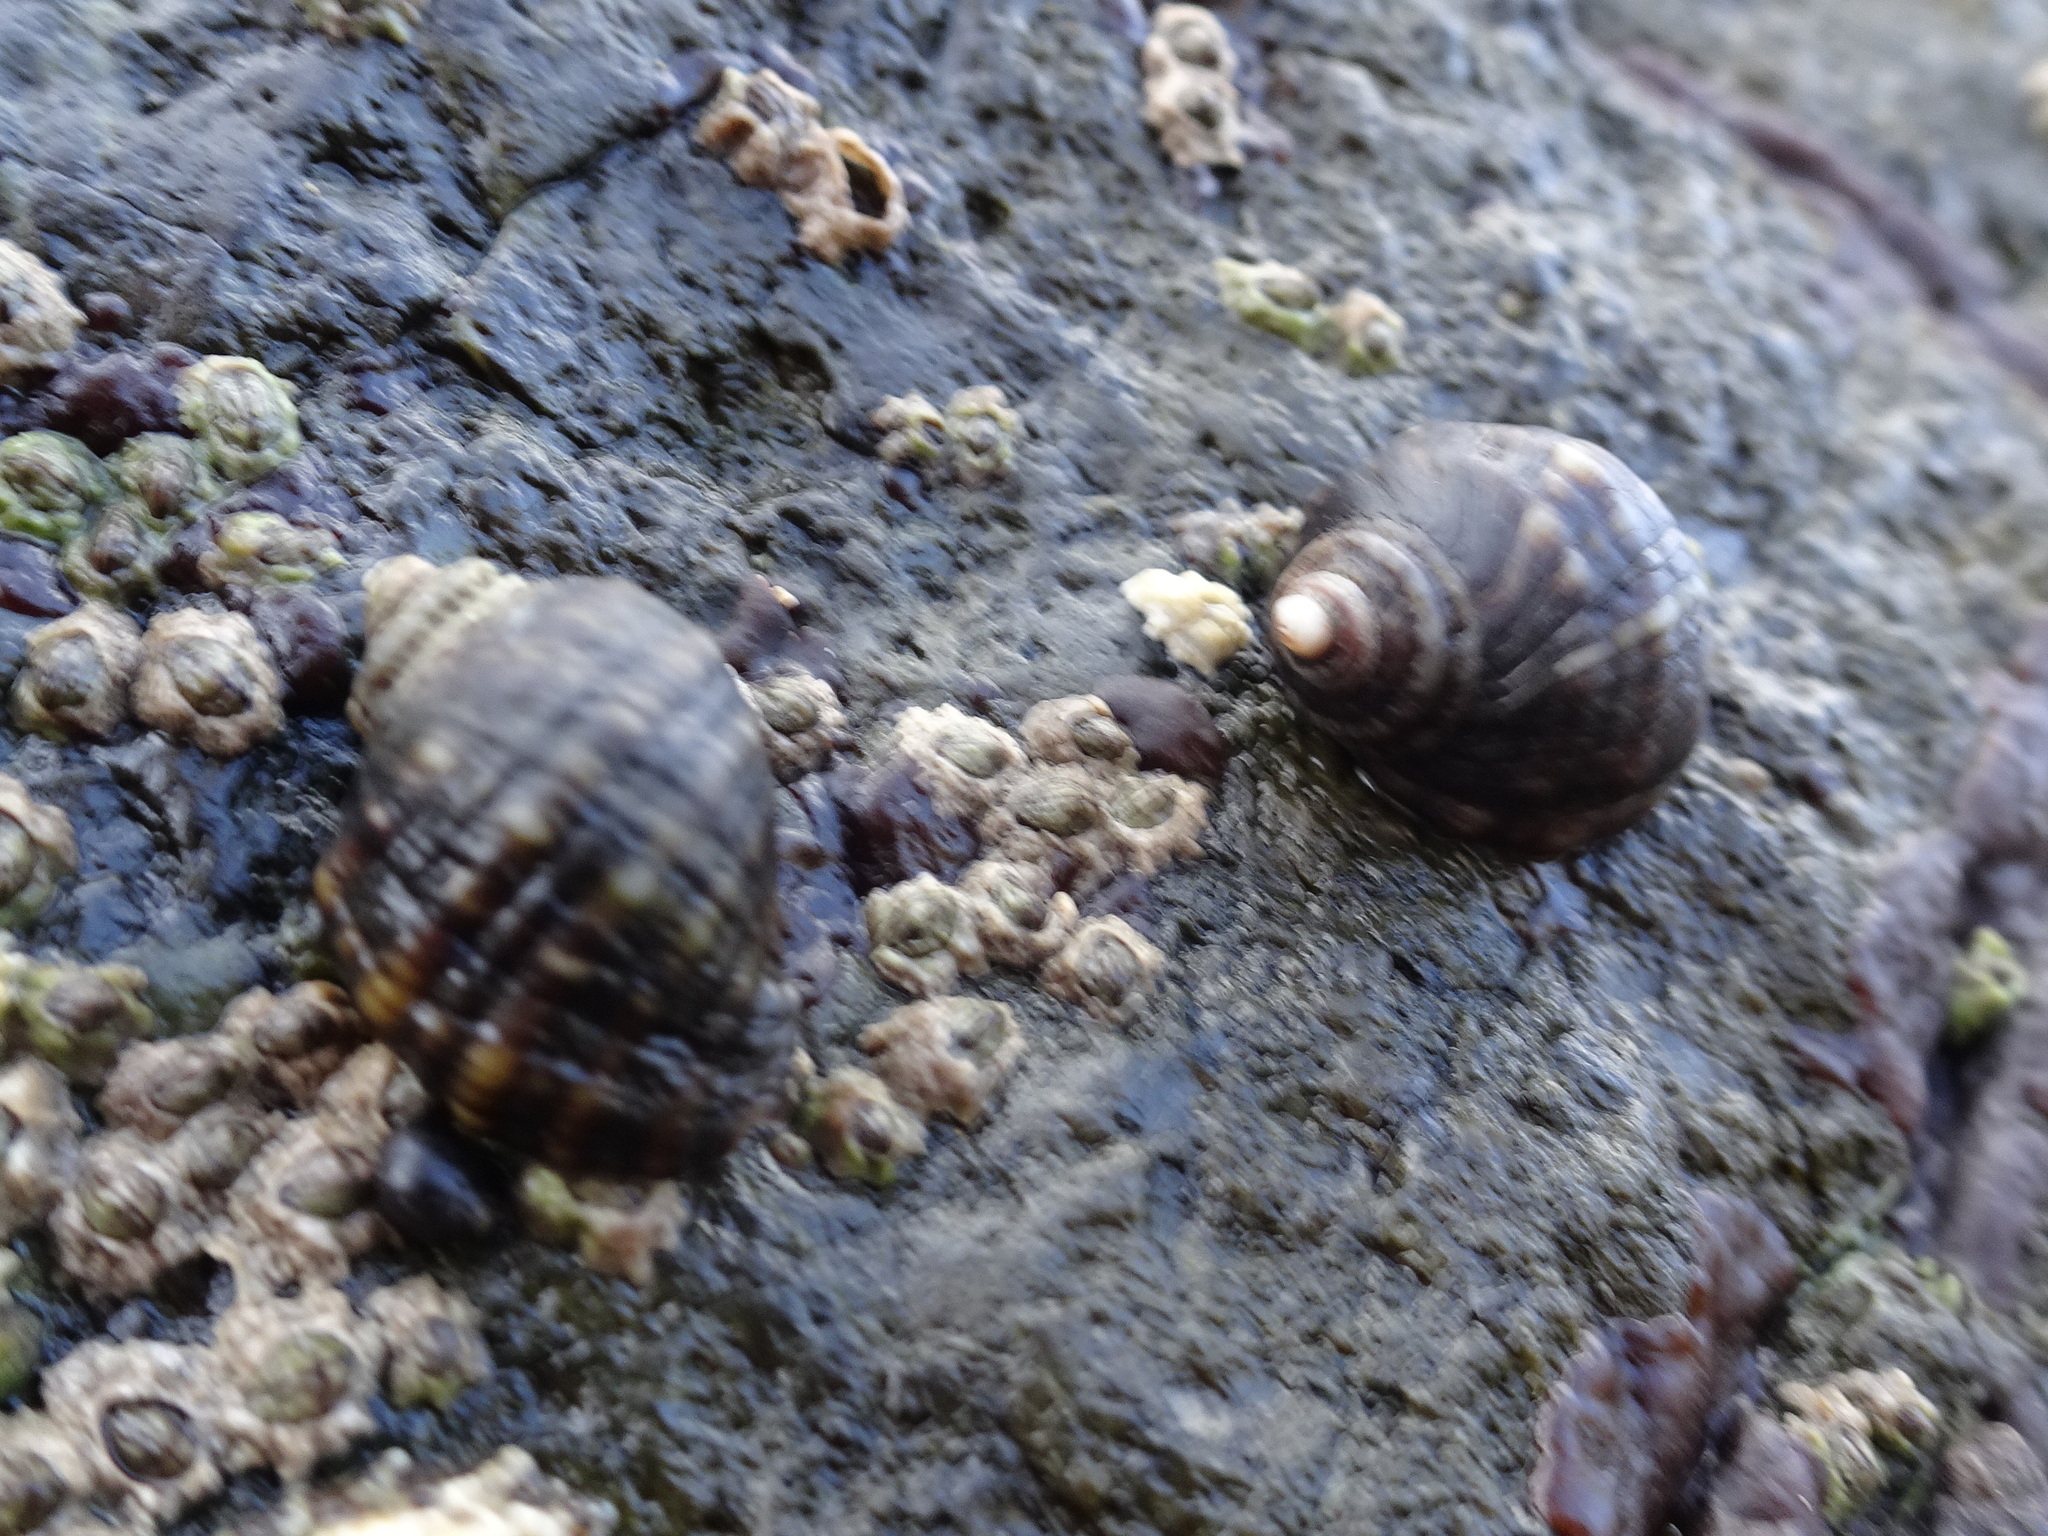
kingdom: Animalia
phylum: Mollusca
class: Gastropoda
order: Neogastropoda
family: Muricidae
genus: Nucella
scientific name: Nucella ostrina
